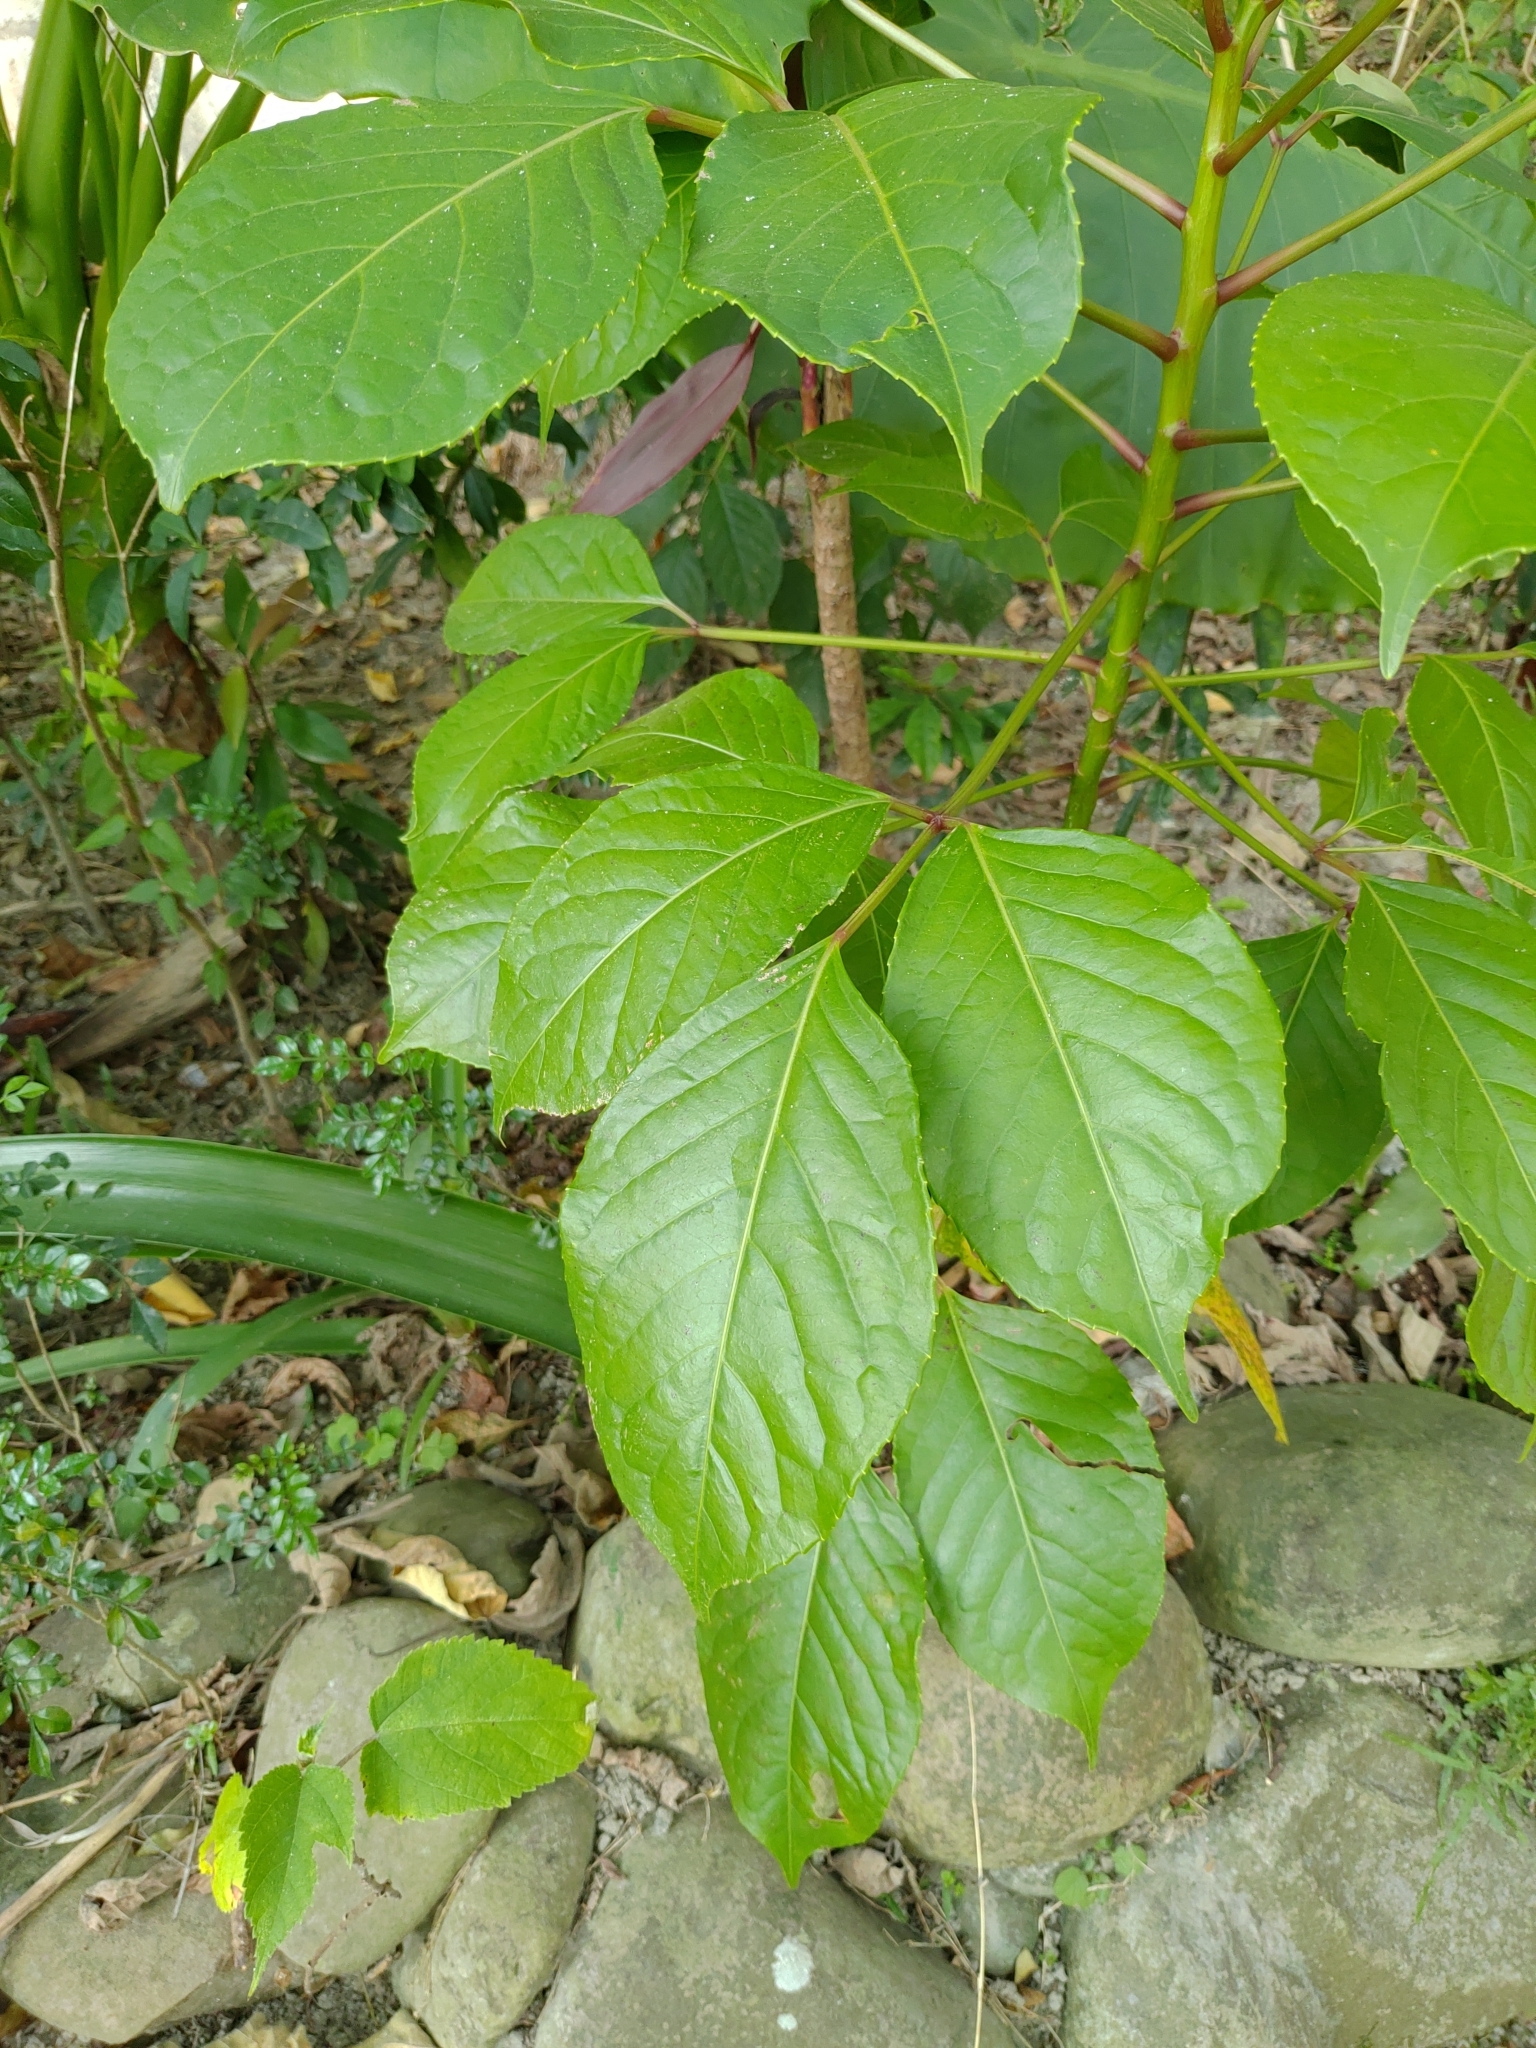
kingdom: Plantae
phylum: Tracheophyta
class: Magnoliopsida
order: Malpighiales
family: Phyllanthaceae
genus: Bischofia
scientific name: Bischofia javanica
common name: Javanese bishopwood
